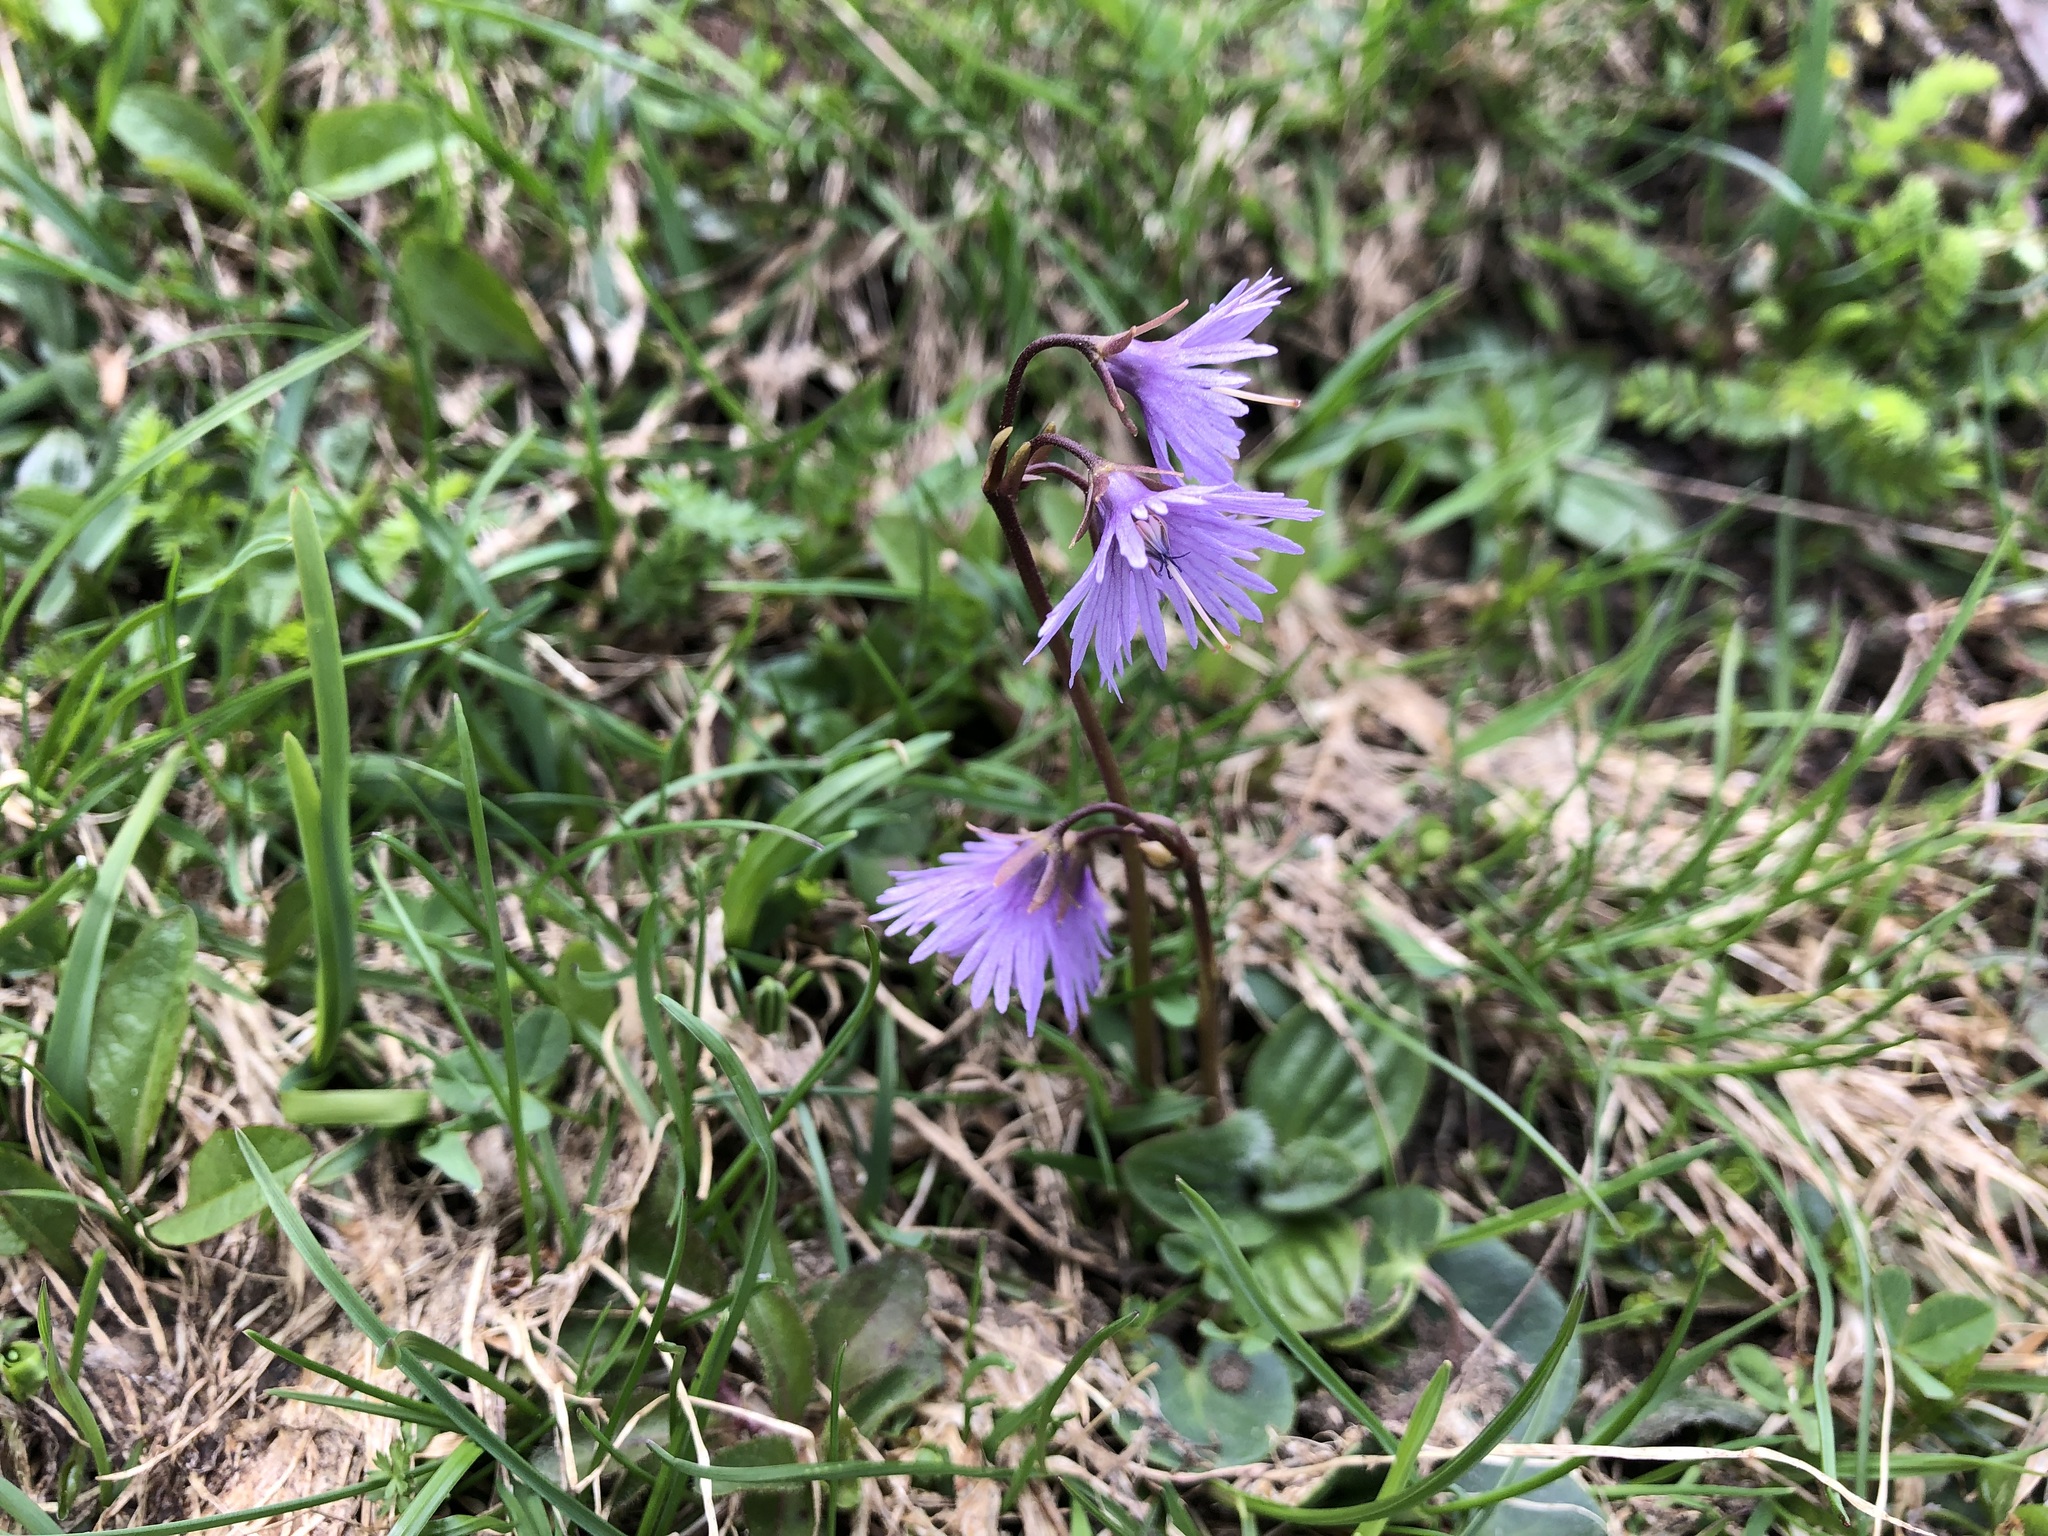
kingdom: Plantae
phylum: Tracheophyta
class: Magnoliopsida
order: Ericales
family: Primulaceae
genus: Soldanella
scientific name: Soldanella alpina
